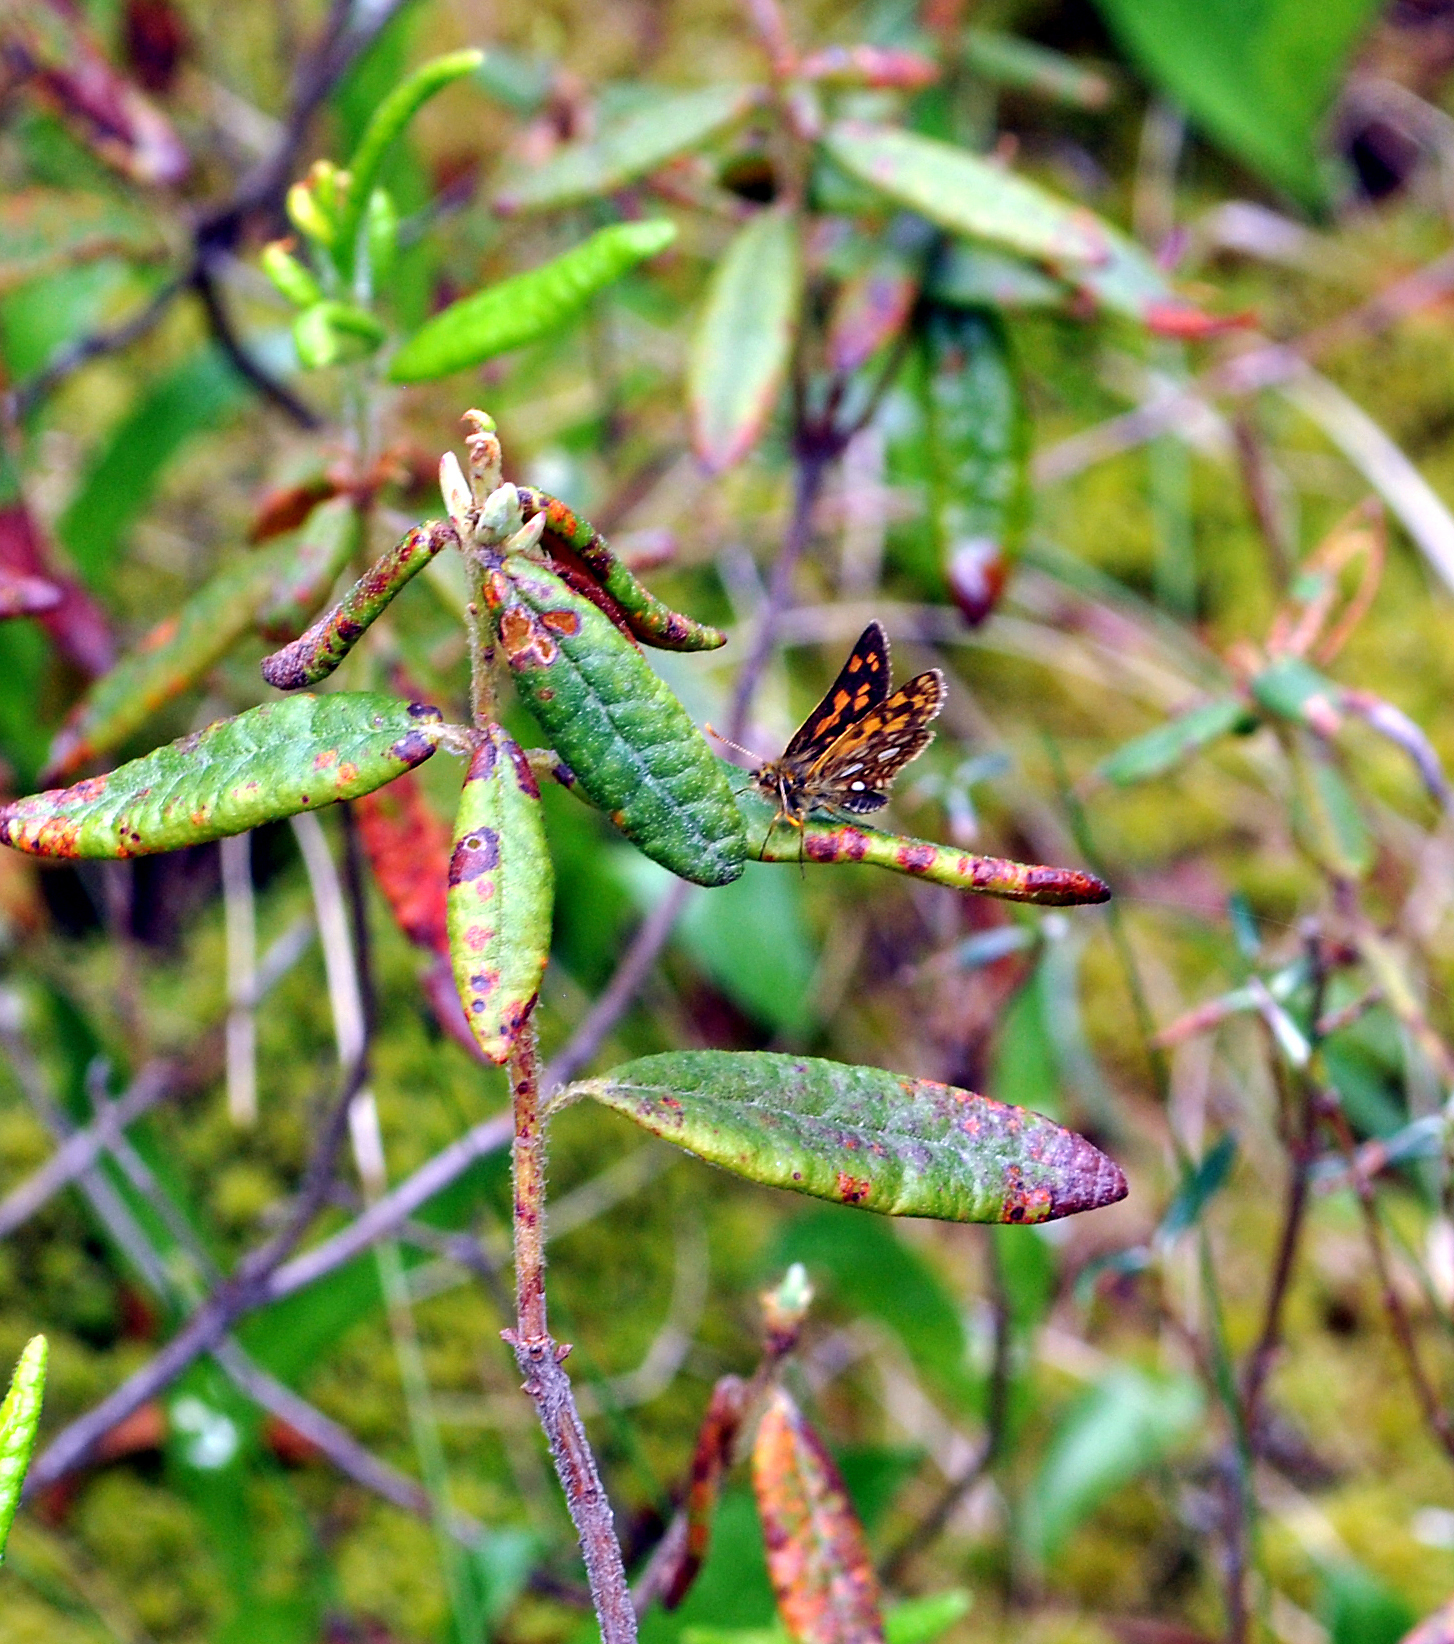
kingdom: Animalia
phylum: Arthropoda
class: Insecta
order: Lepidoptera
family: Hesperiidae
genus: Carterocephalus
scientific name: Carterocephalus mandan
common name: Arctic skipperling
